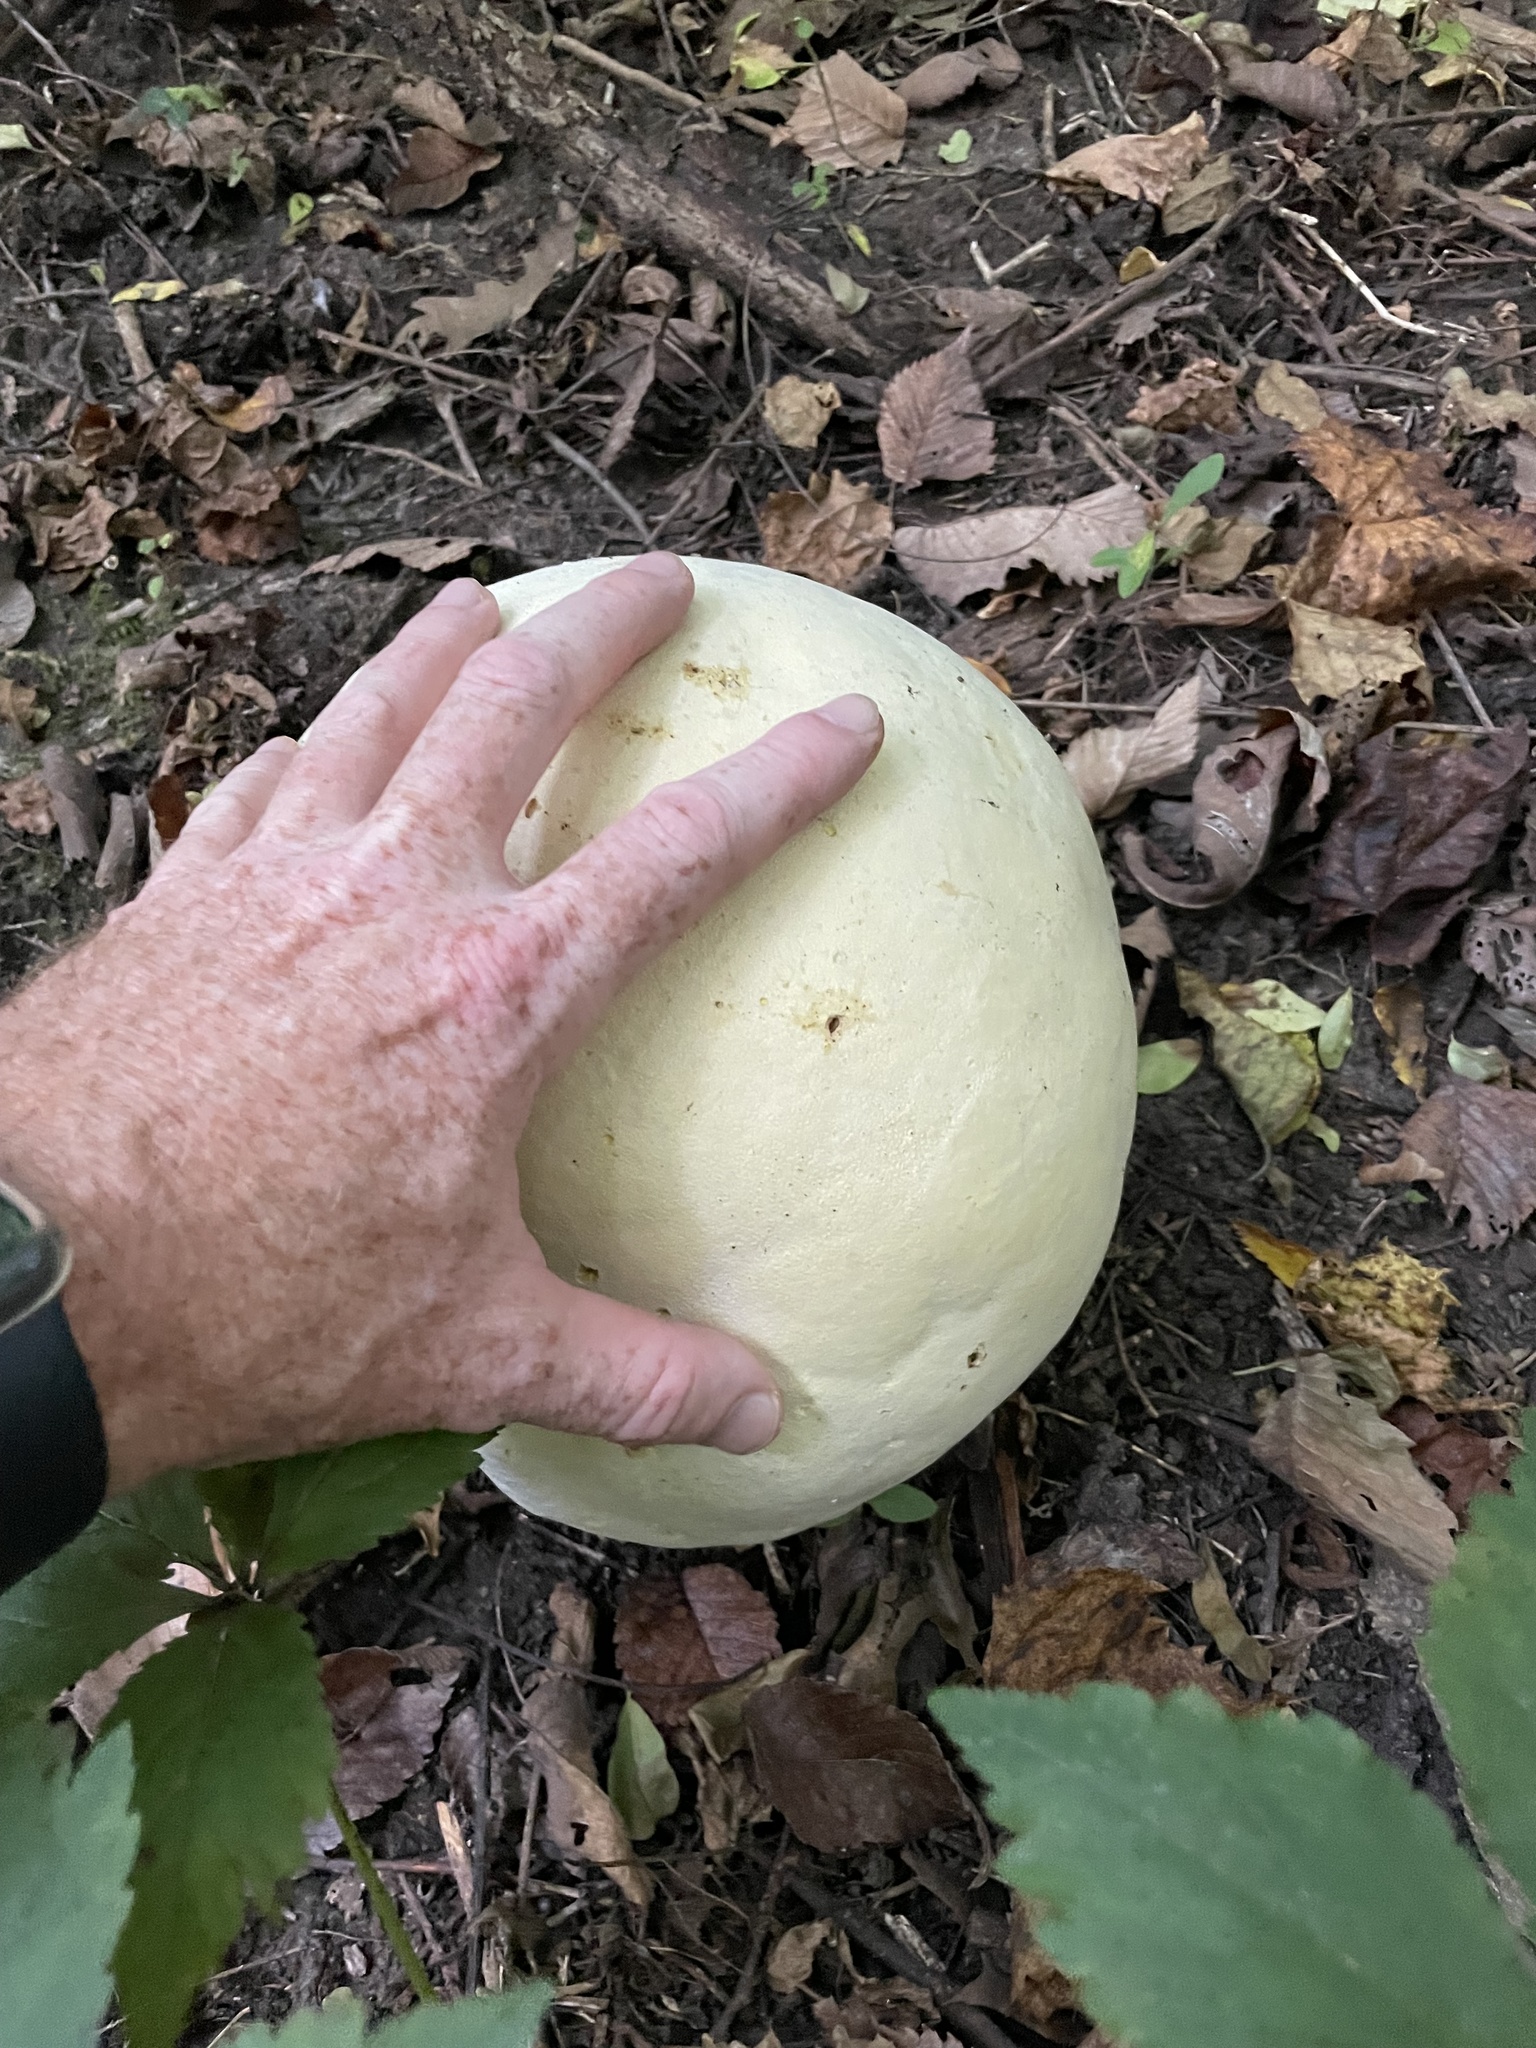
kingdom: Fungi
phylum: Basidiomycota
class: Agaricomycetes
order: Agaricales
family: Lycoperdaceae
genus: Calvatia
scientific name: Calvatia gigantea
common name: Giant puffball
